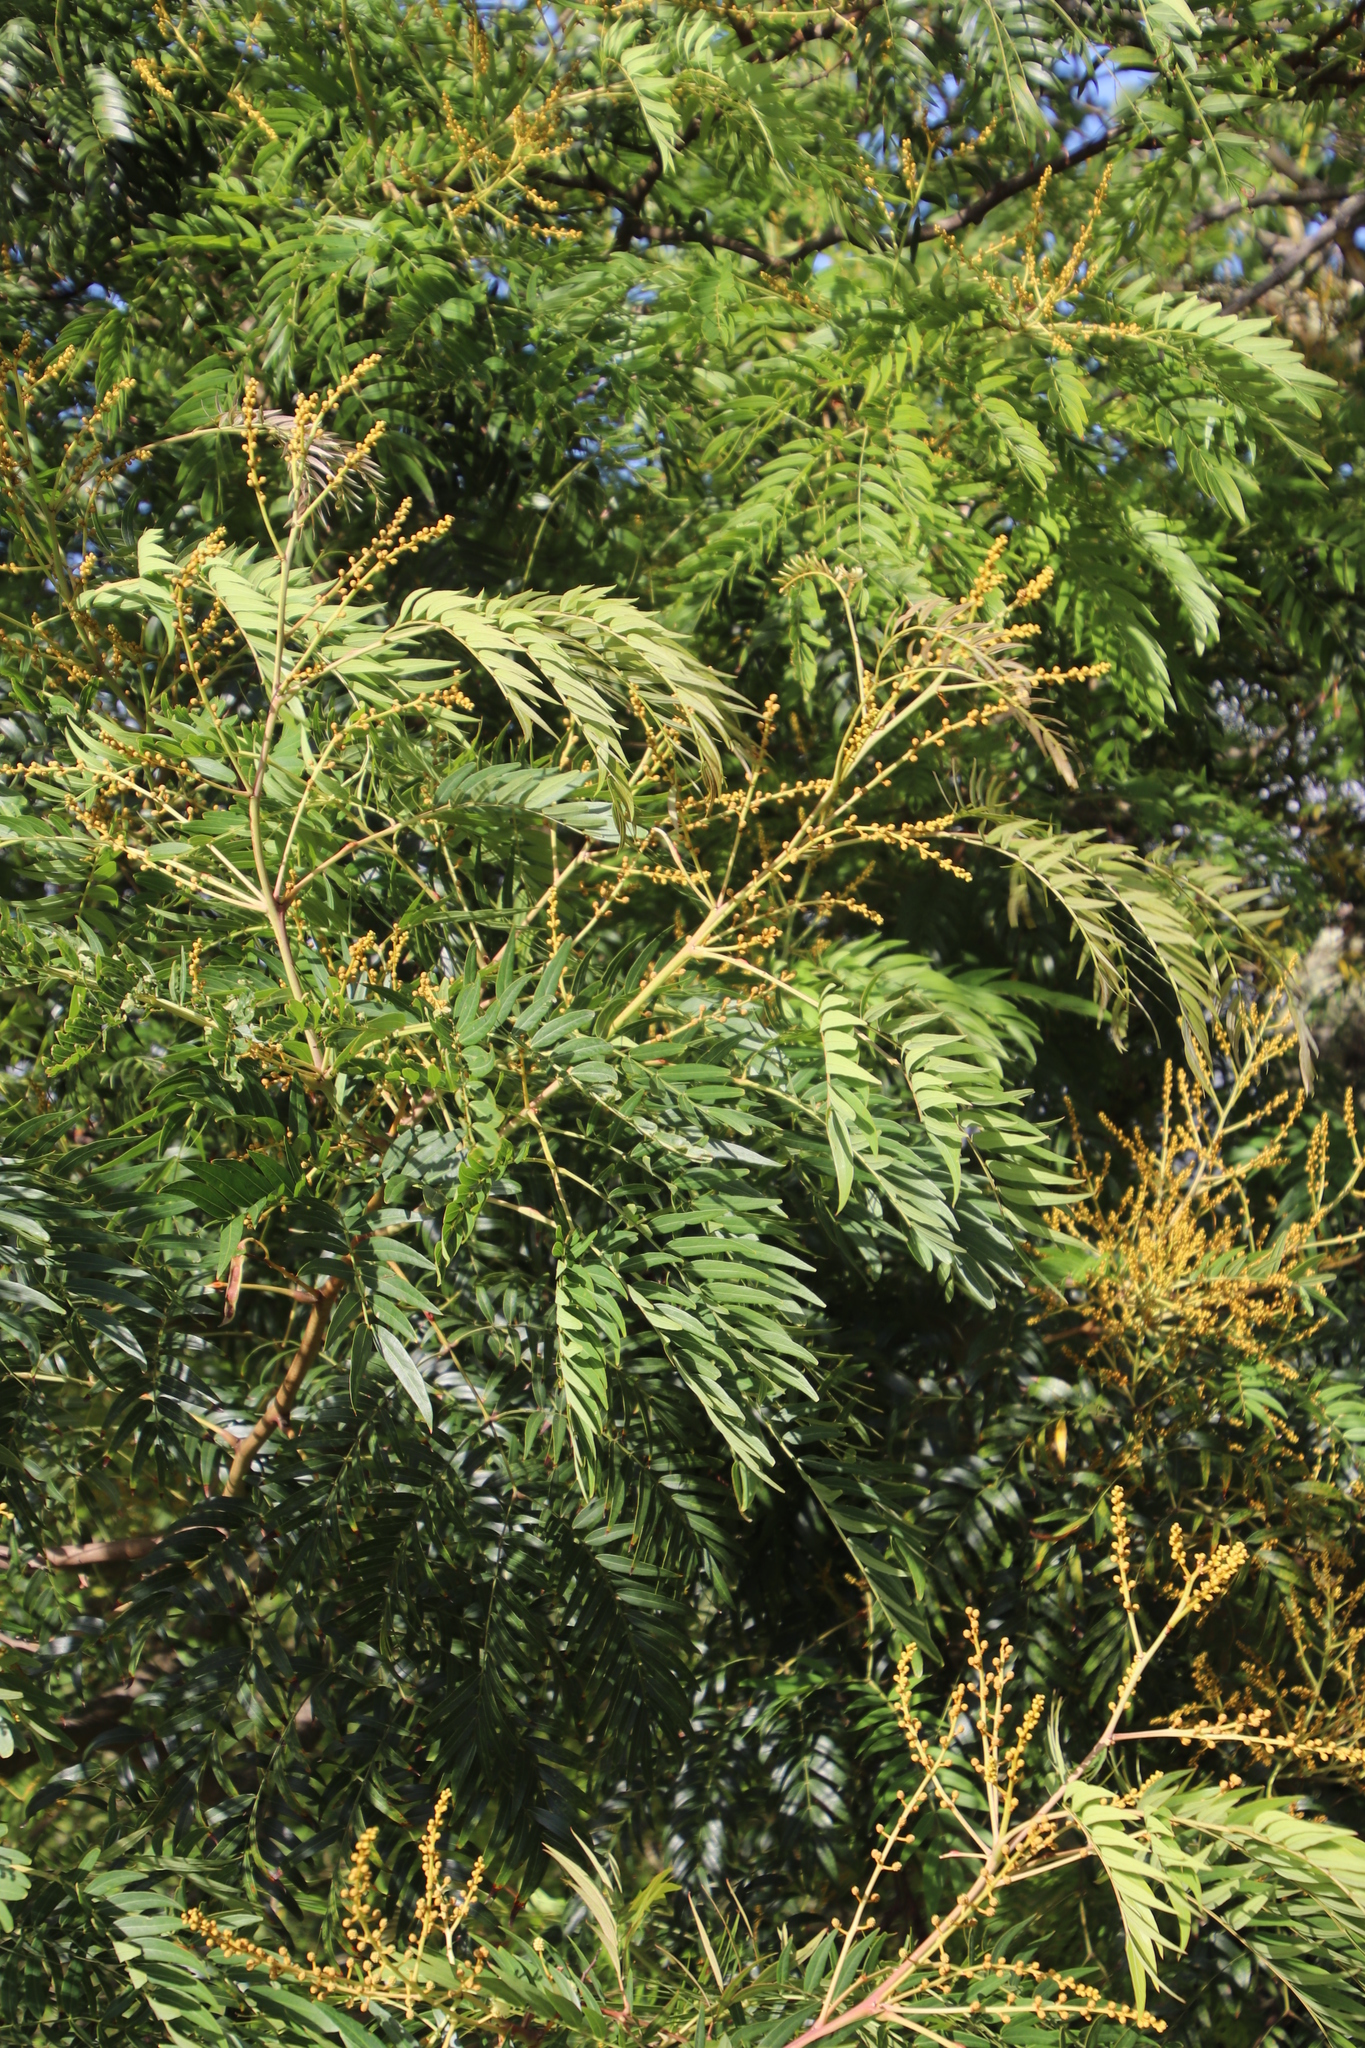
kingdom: Plantae
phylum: Tracheophyta
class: Magnoliopsida
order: Fabales
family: Fabaceae
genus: Acacia
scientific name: Acacia elata
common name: Cedar wattle
